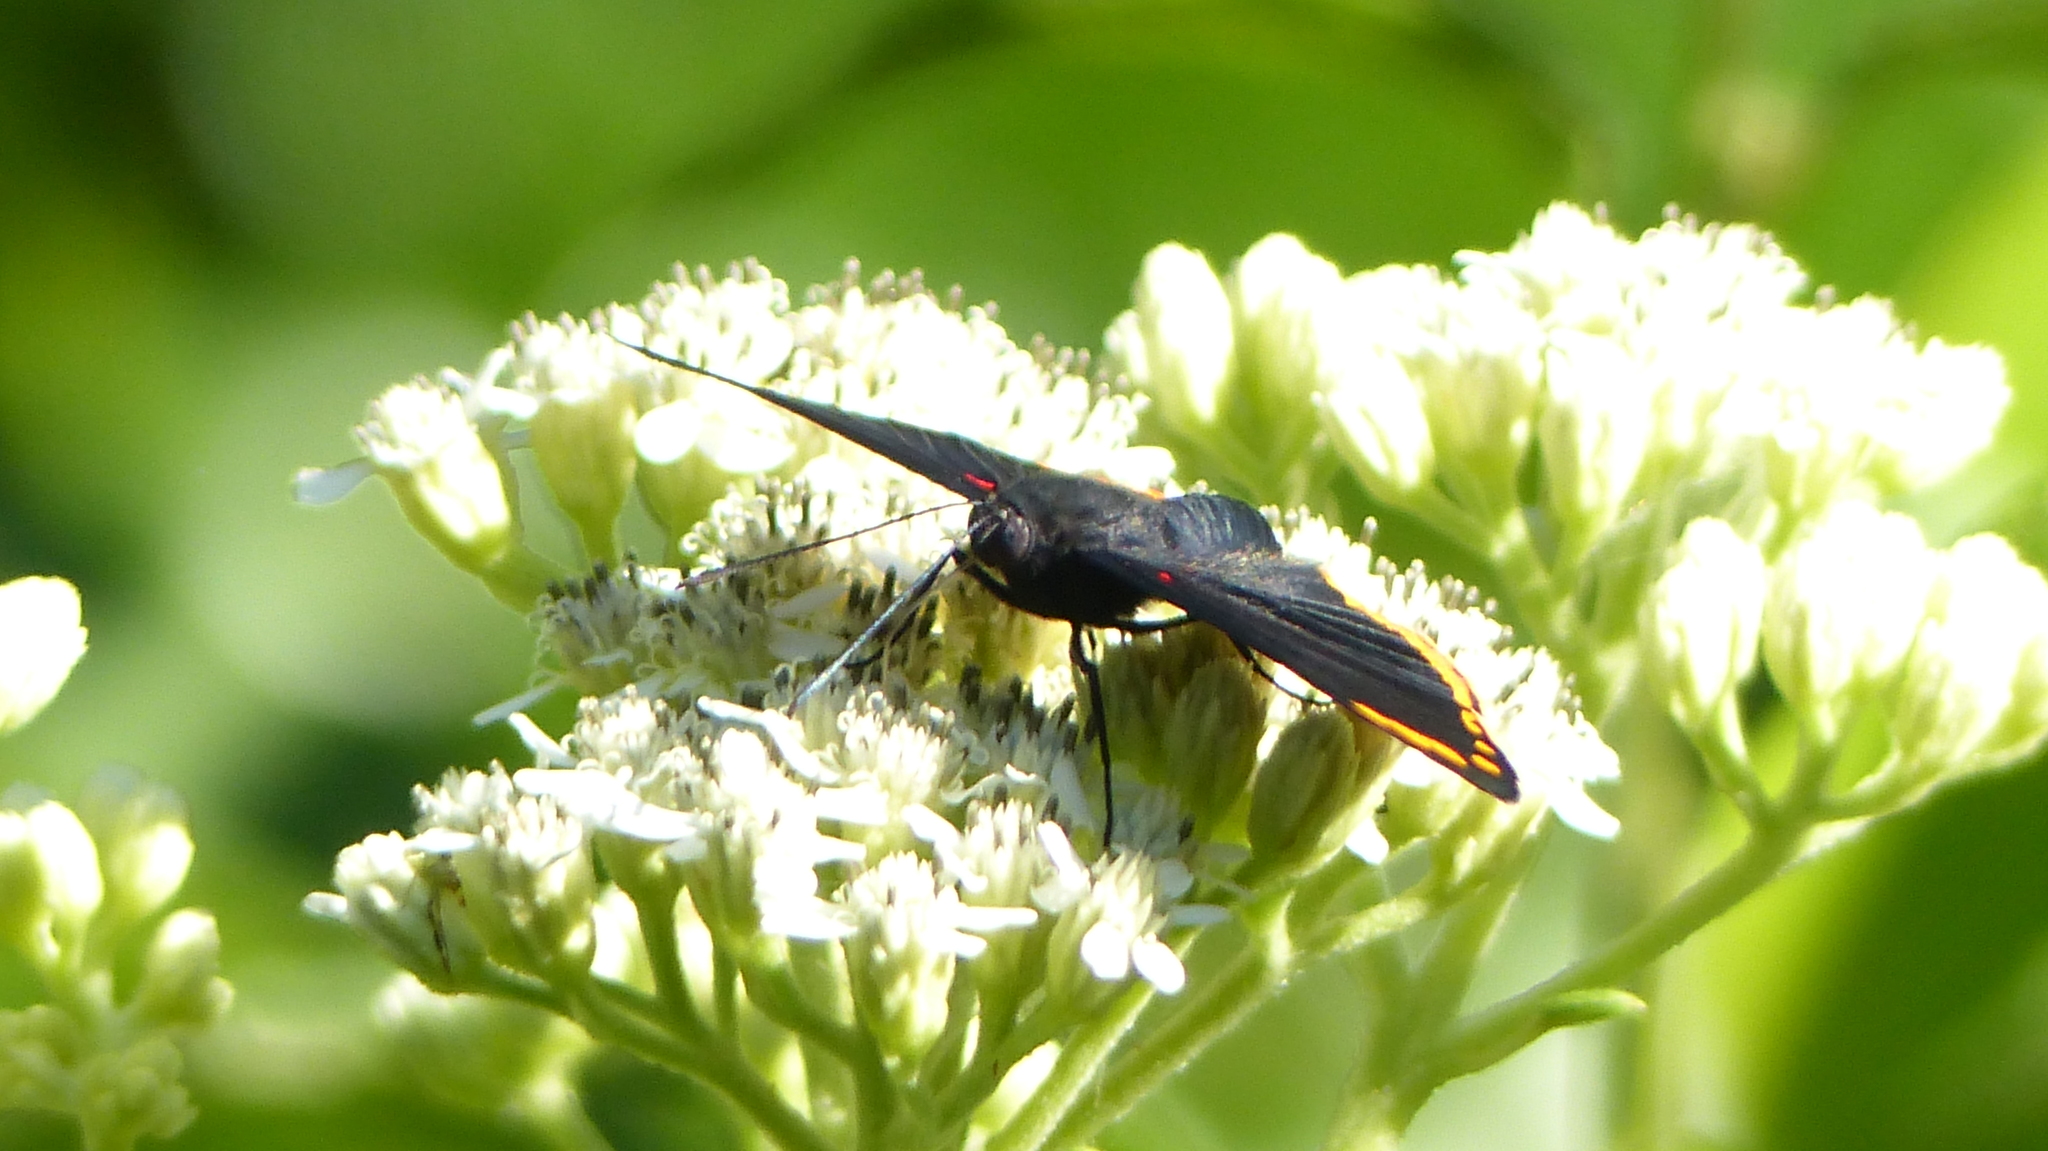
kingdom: Animalia
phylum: Arthropoda
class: Insecta
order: Lepidoptera
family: Lycaenidae
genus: Melanis
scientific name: Melanis xenia
